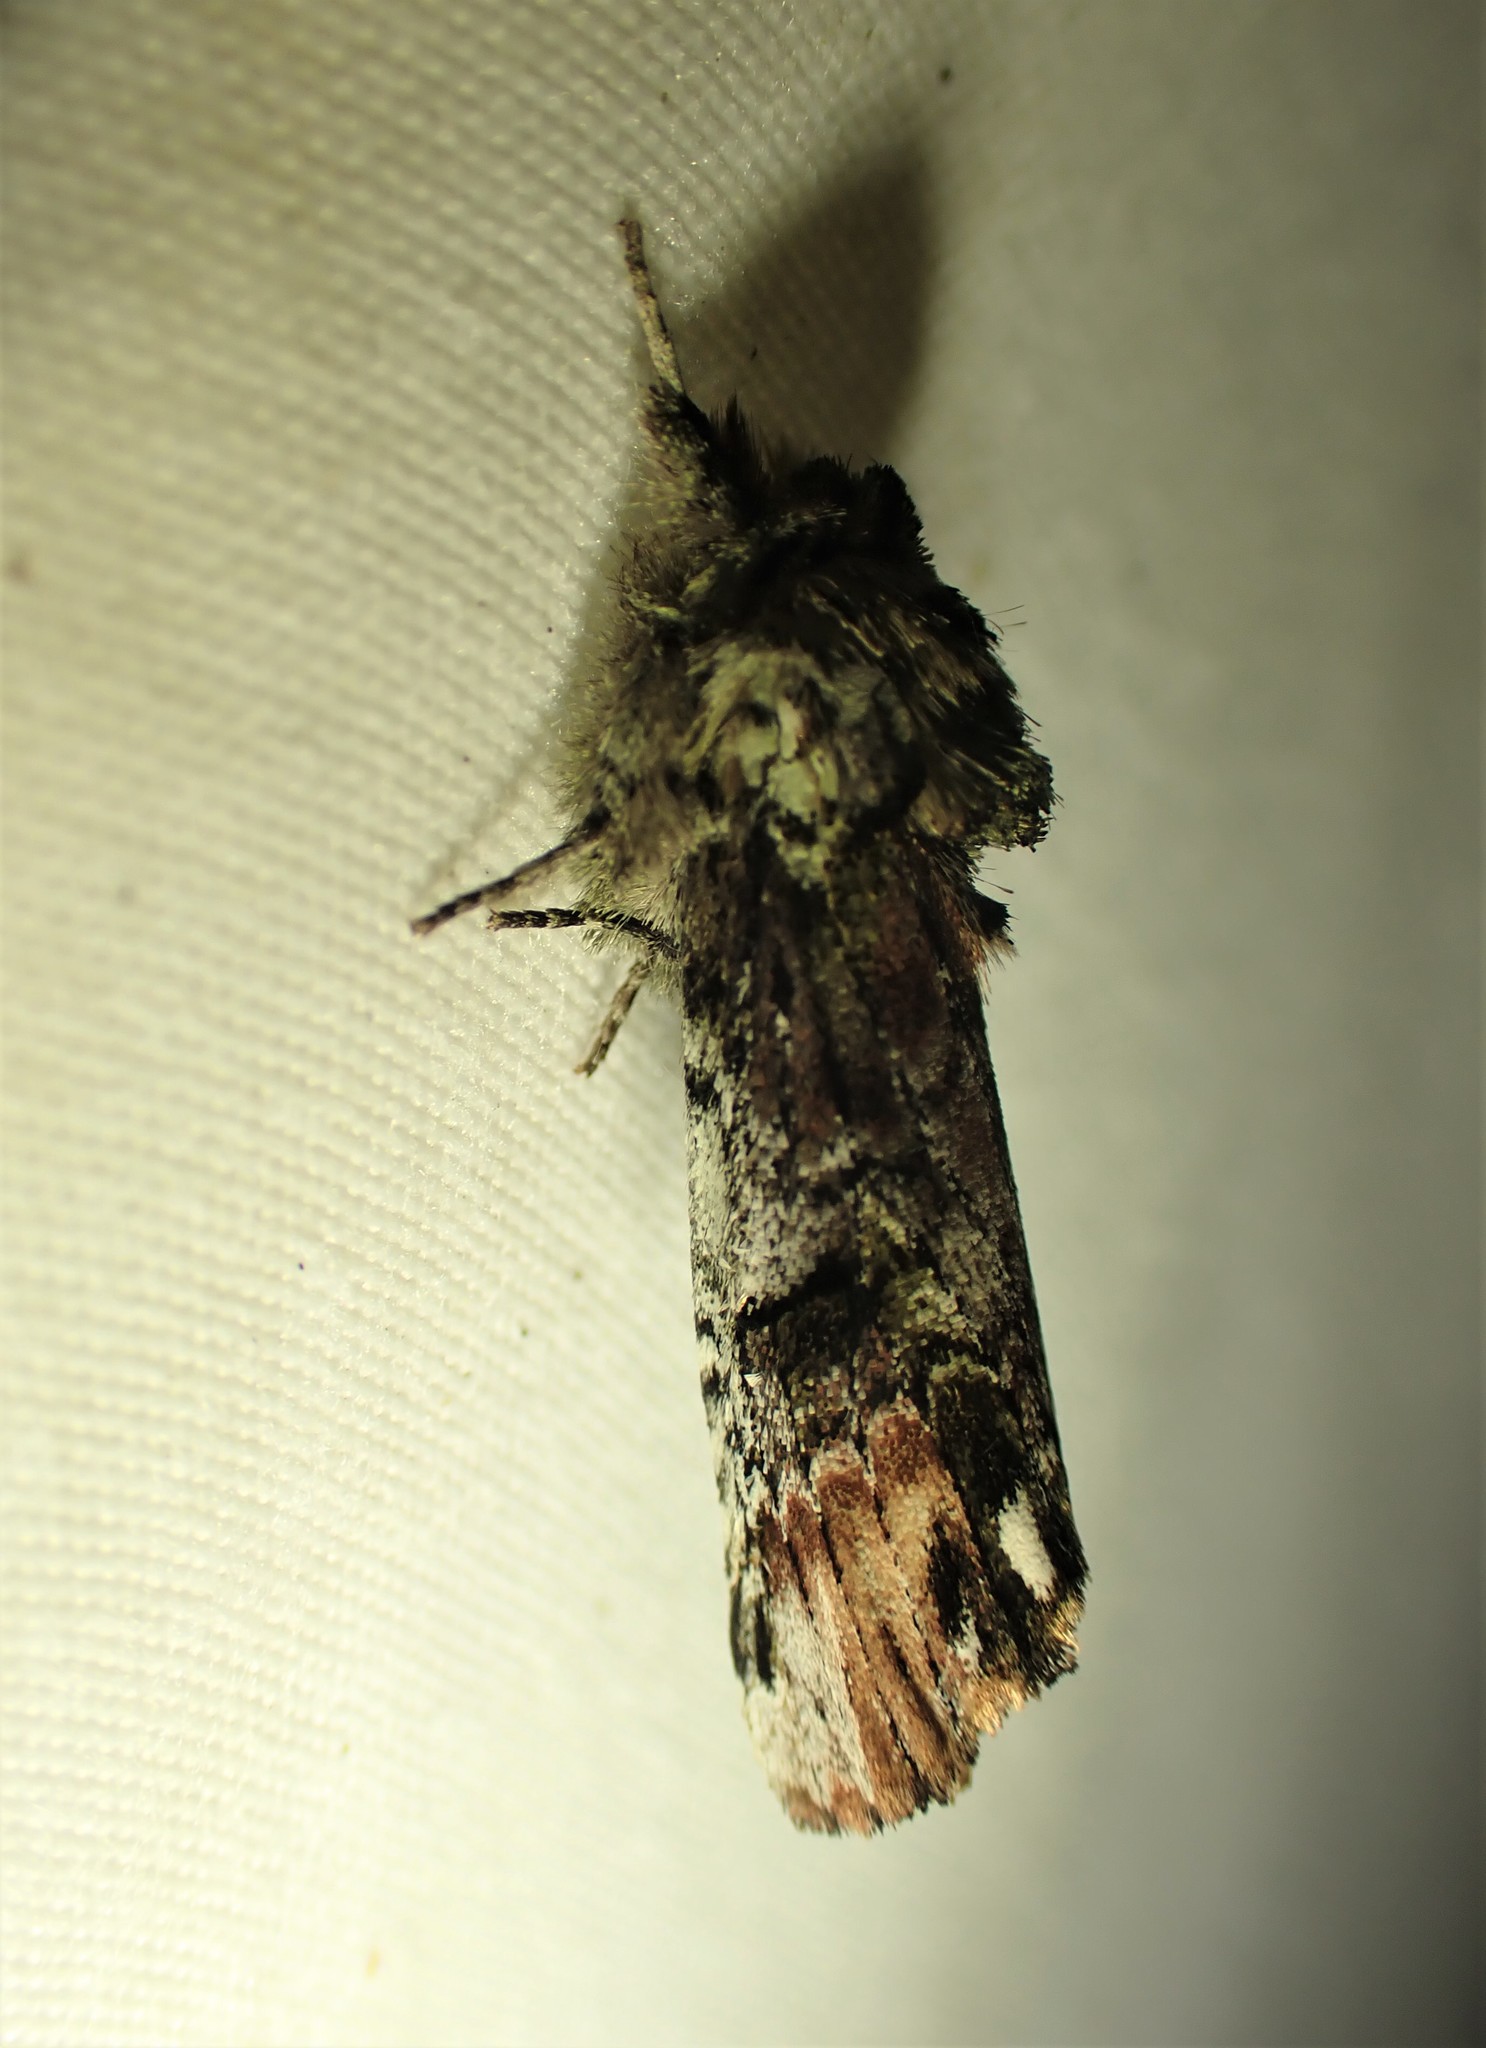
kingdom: Animalia
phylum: Arthropoda
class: Insecta
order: Lepidoptera
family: Notodontidae
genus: Schizura
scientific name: Schizura
